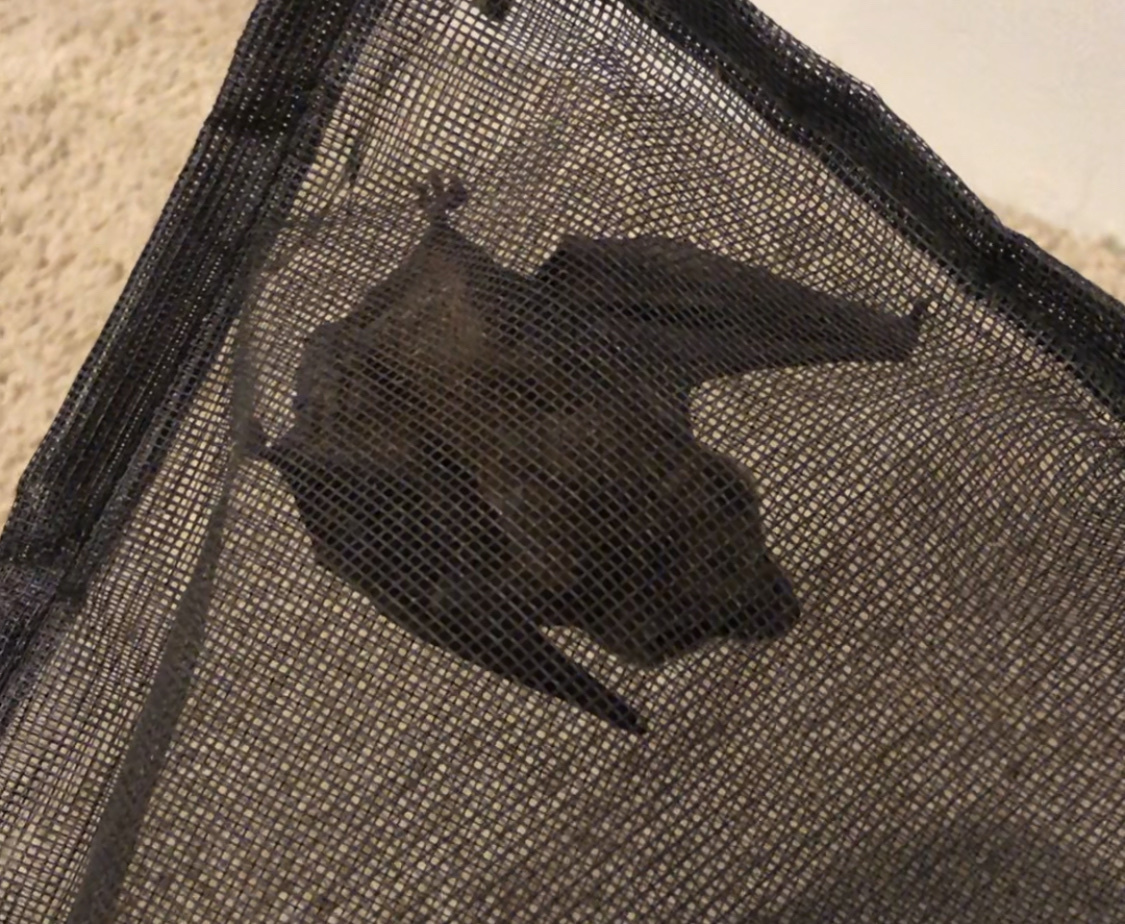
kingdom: Animalia
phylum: Chordata
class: Mammalia
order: Chiroptera
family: Vespertilionidae
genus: Eptesicus
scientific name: Eptesicus fuscus
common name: Big brown bat
